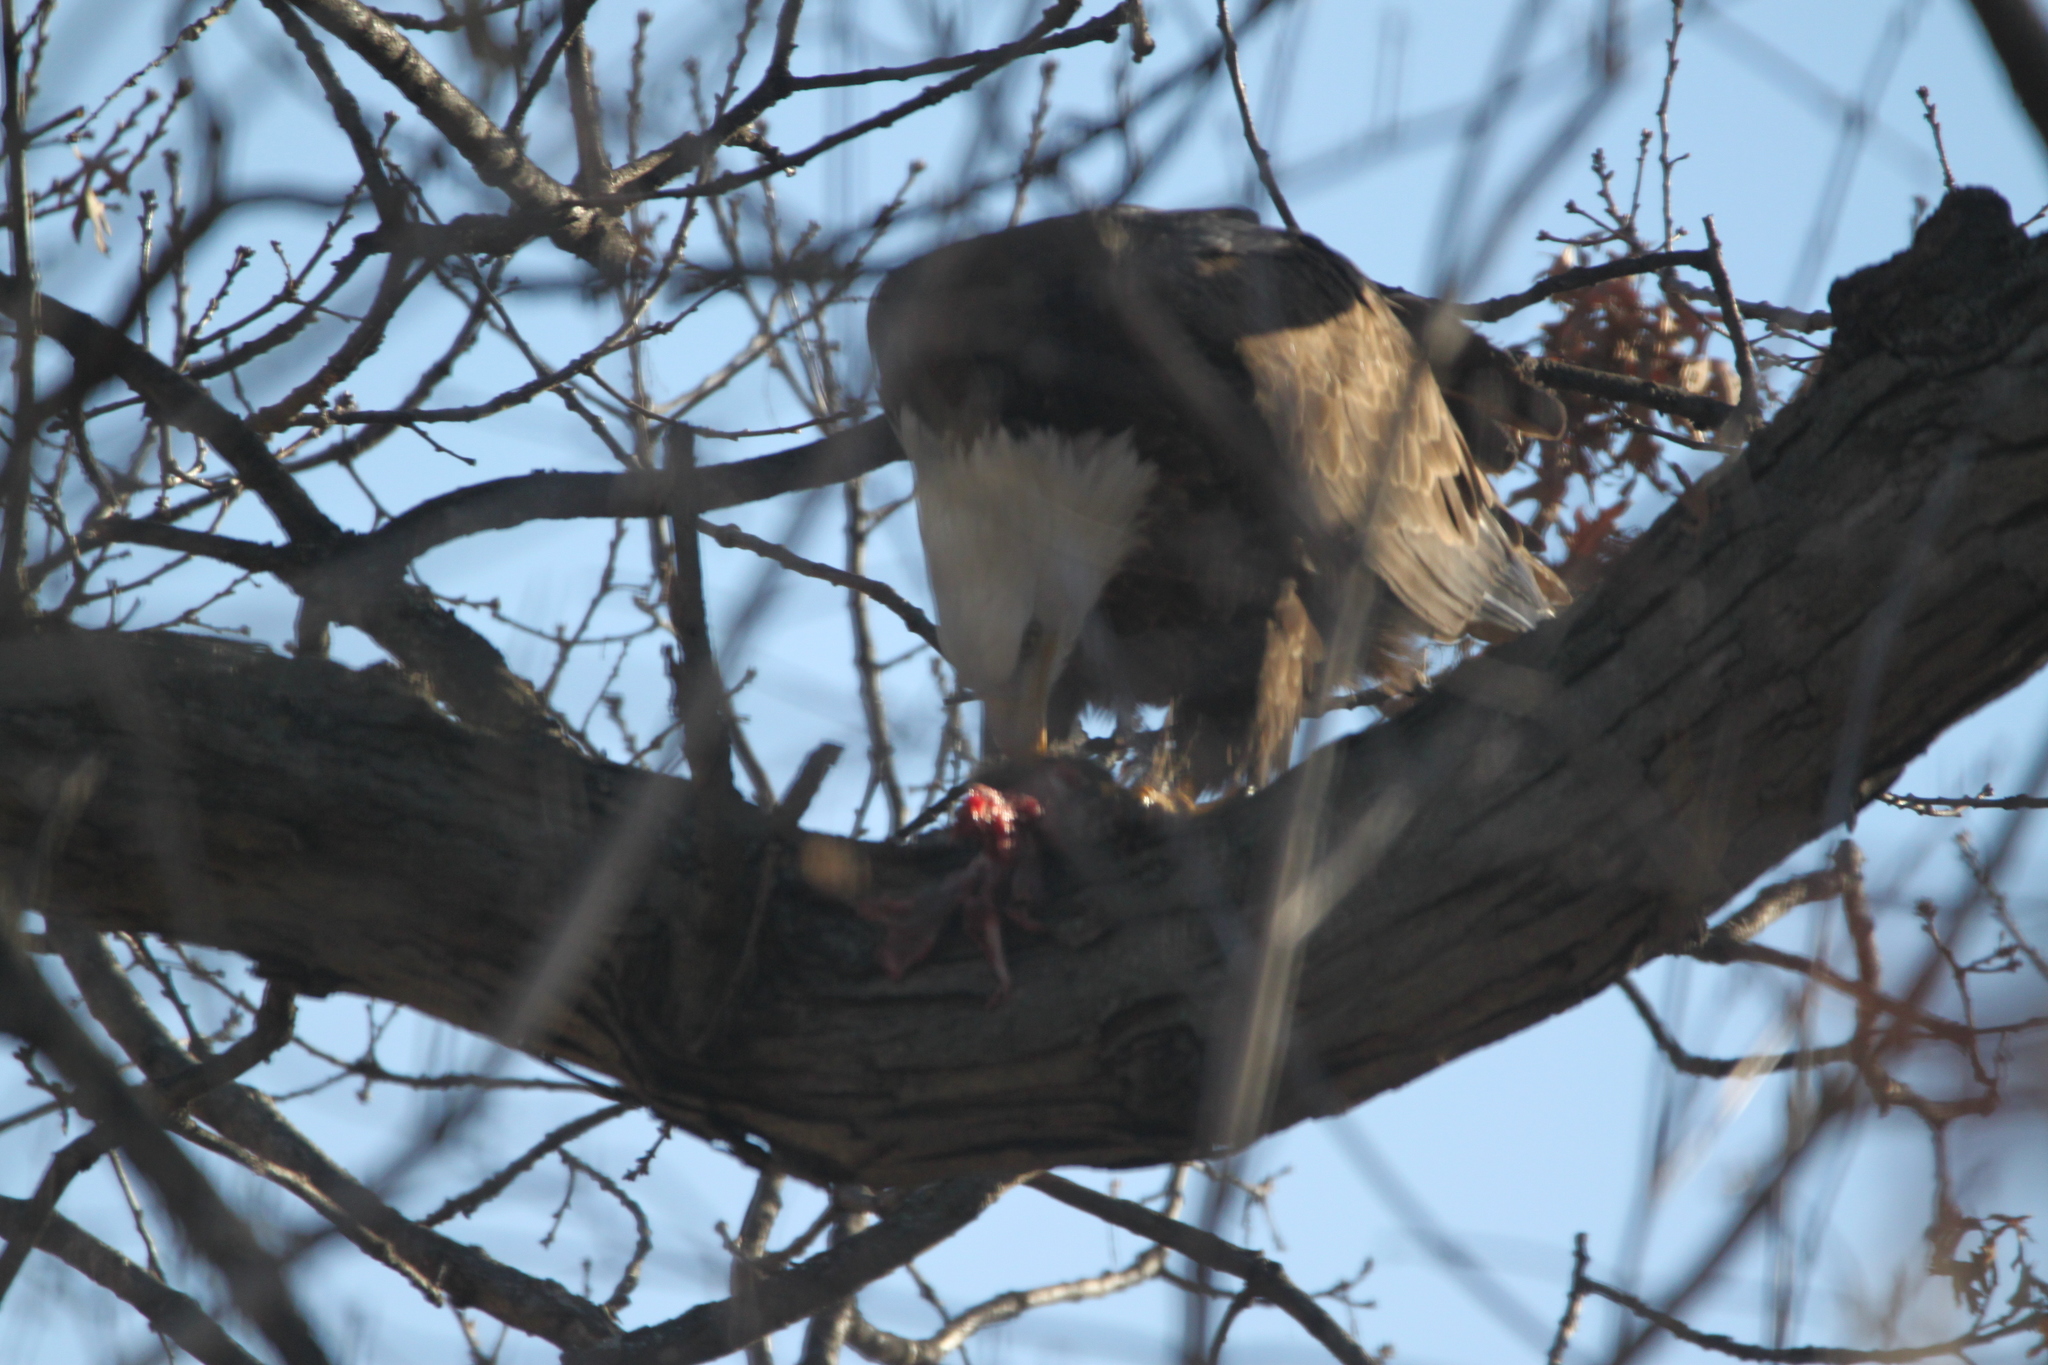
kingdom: Animalia
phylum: Chordata
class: Aves
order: Accipitriformes
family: Accipitridae
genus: Haliaeetus
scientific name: Haliaeetus leucocephalus
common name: Bald eagle
